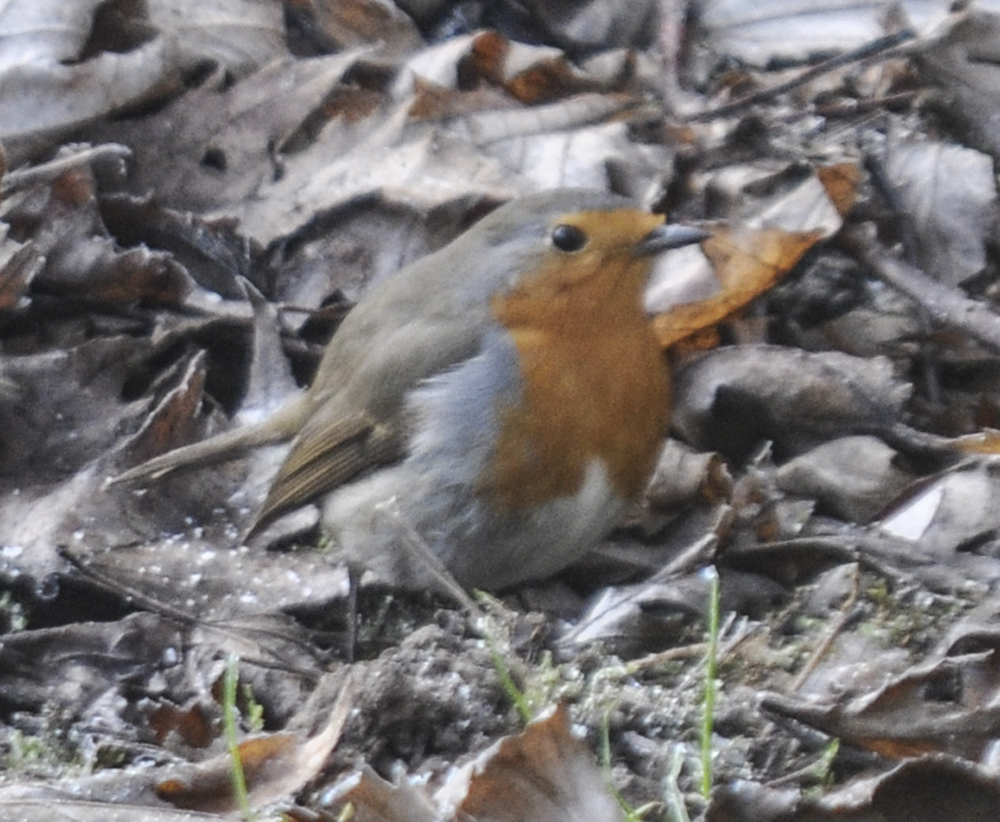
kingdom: Animalia
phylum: Chordata
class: Aves
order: Passeriformes
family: Muscicapidae
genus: Erithacus
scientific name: Erithacus rubecula
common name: European robin
